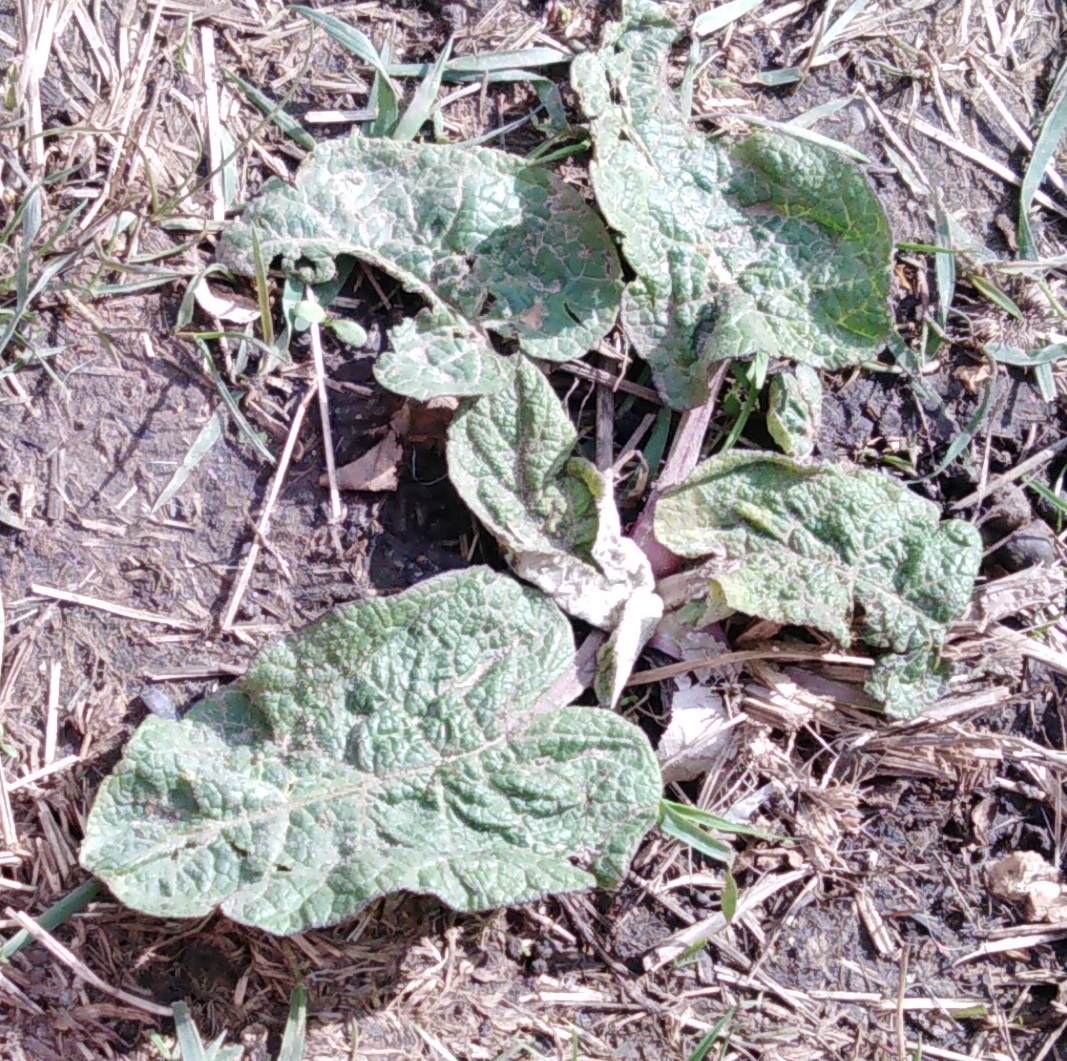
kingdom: Plantae
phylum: Tracheophyta
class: Magnoliopsida
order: Asterales
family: Asteraceae
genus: Arctium
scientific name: Arctium
